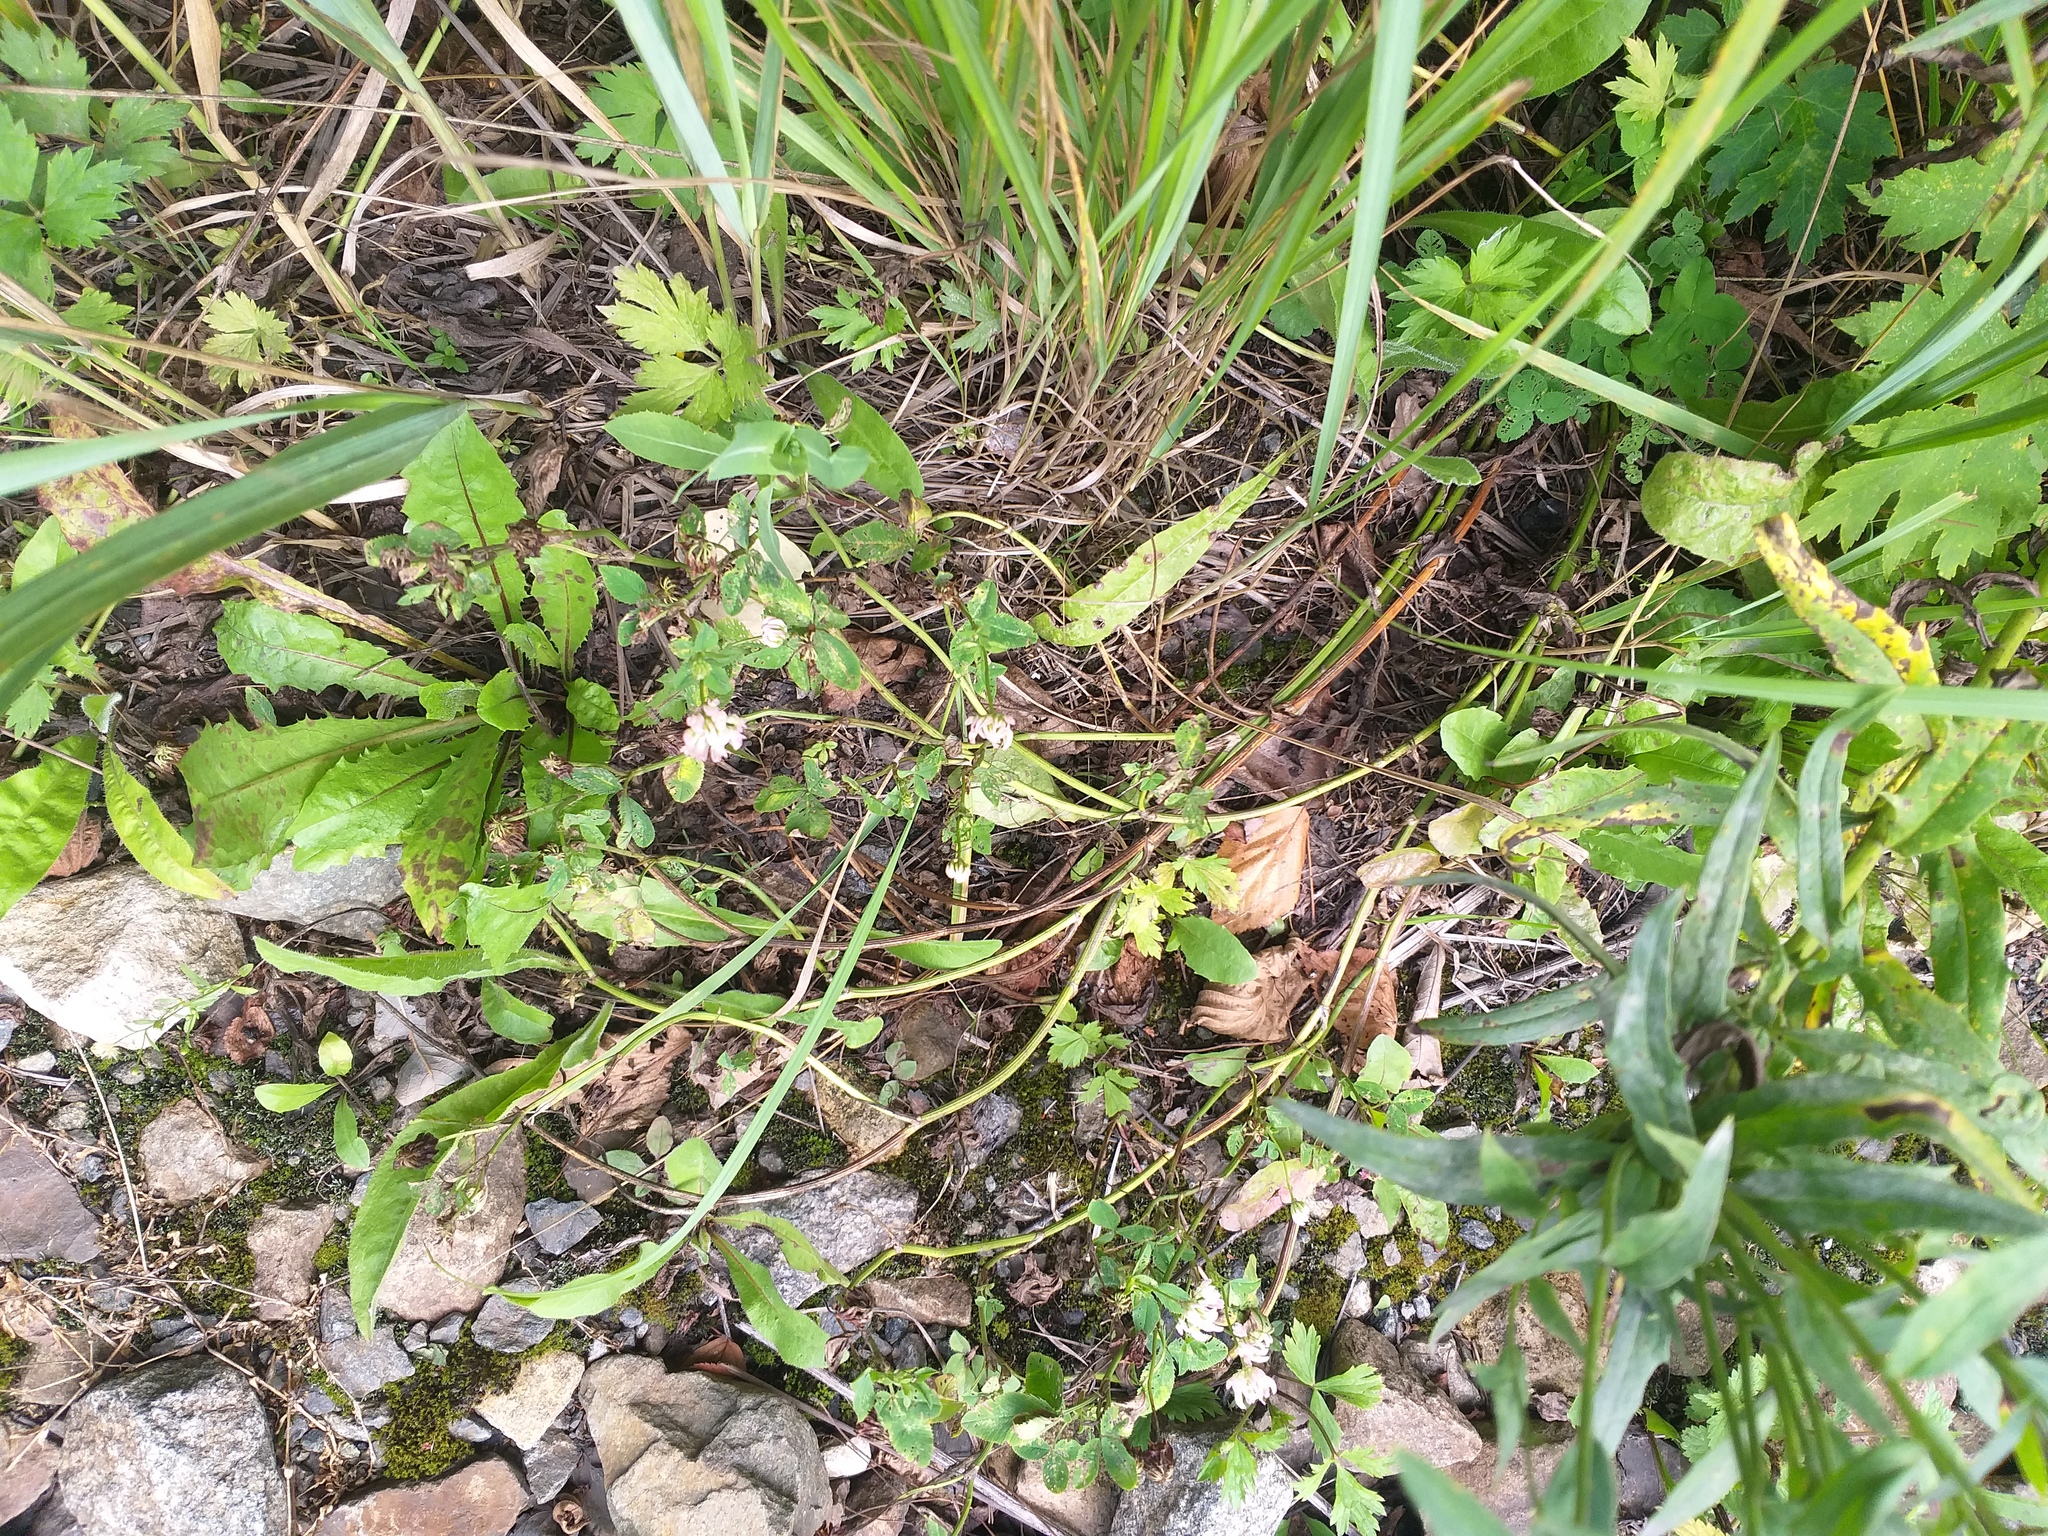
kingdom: Plantae
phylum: Tracheophyta
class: Magnoliopsida
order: Fabales
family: Fabaceae
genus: Trifolium
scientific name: Trifolium hybridum
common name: Alsike clover
